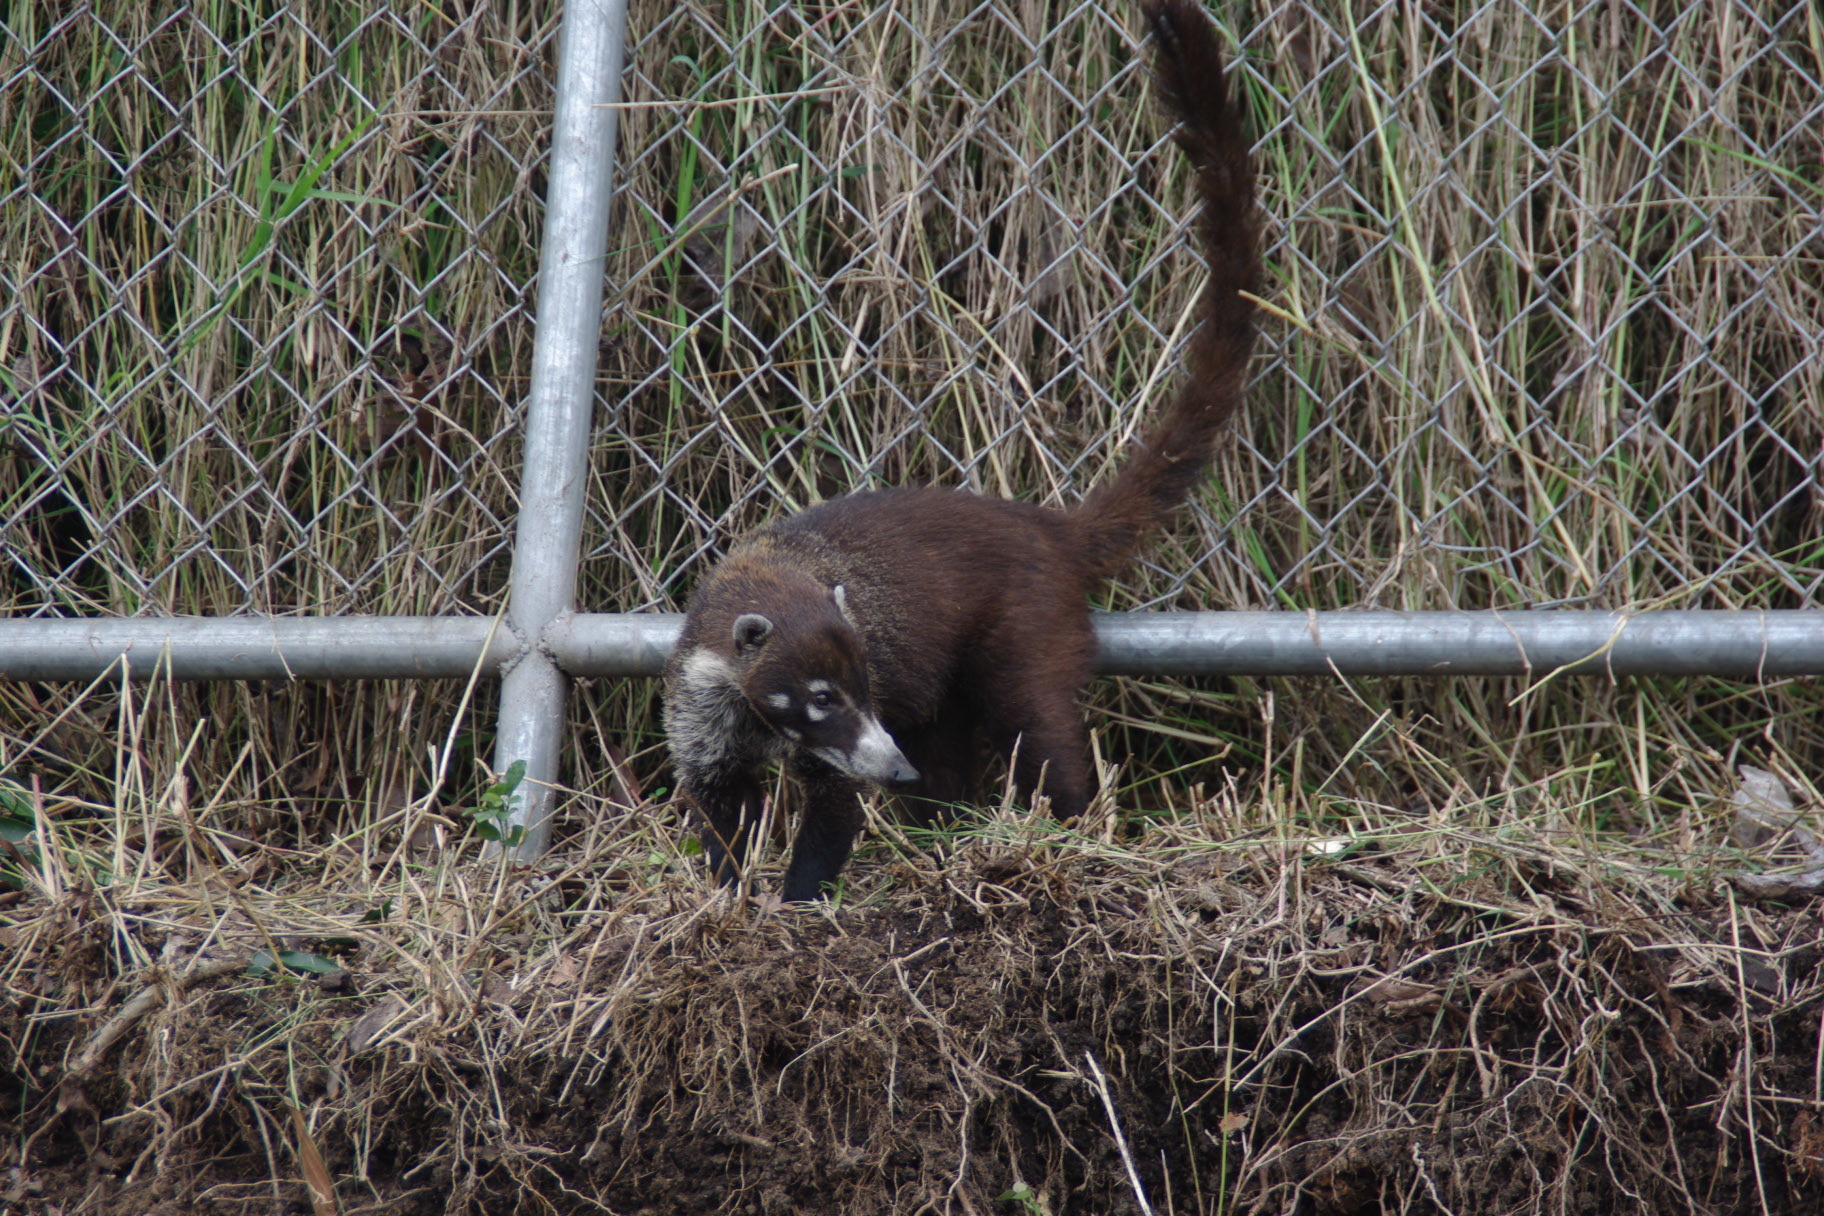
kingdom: Animalia
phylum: Chordata
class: Mammalia
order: Carnivora
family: Procyonidae
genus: Nasua
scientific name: Nasua narica
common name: White-nosed coati
